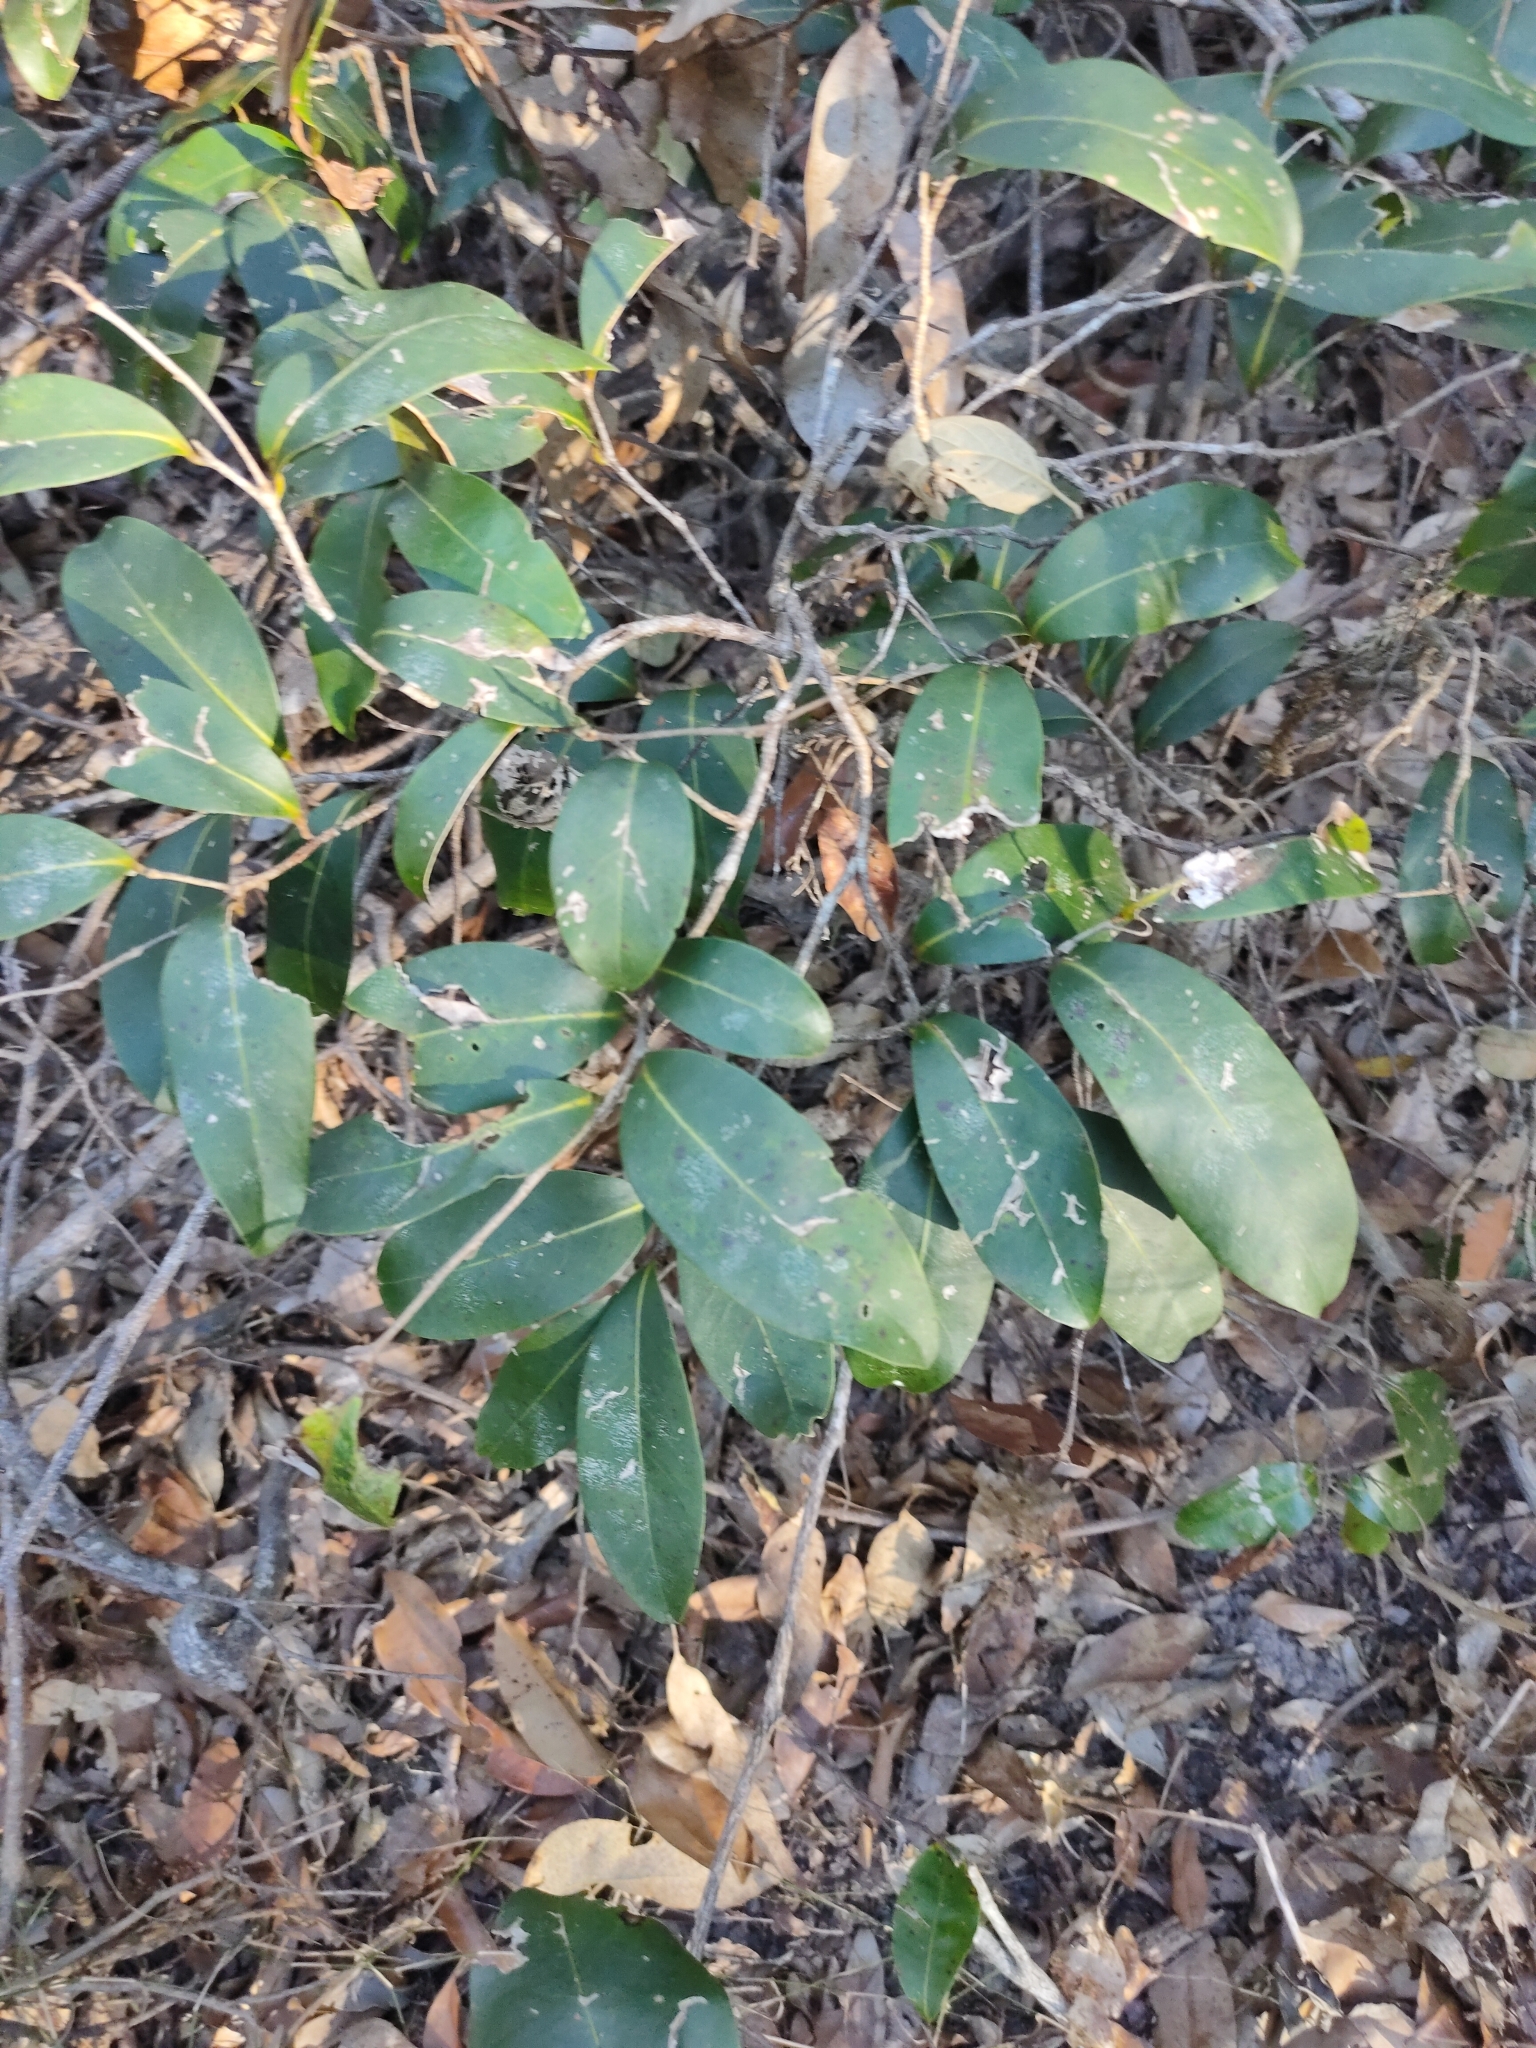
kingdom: Plantae
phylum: Tracheophyta
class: Magnoliopsida
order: Magnoliales
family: Annonaceae
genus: Uvaria
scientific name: Uvaria leichhardtii
